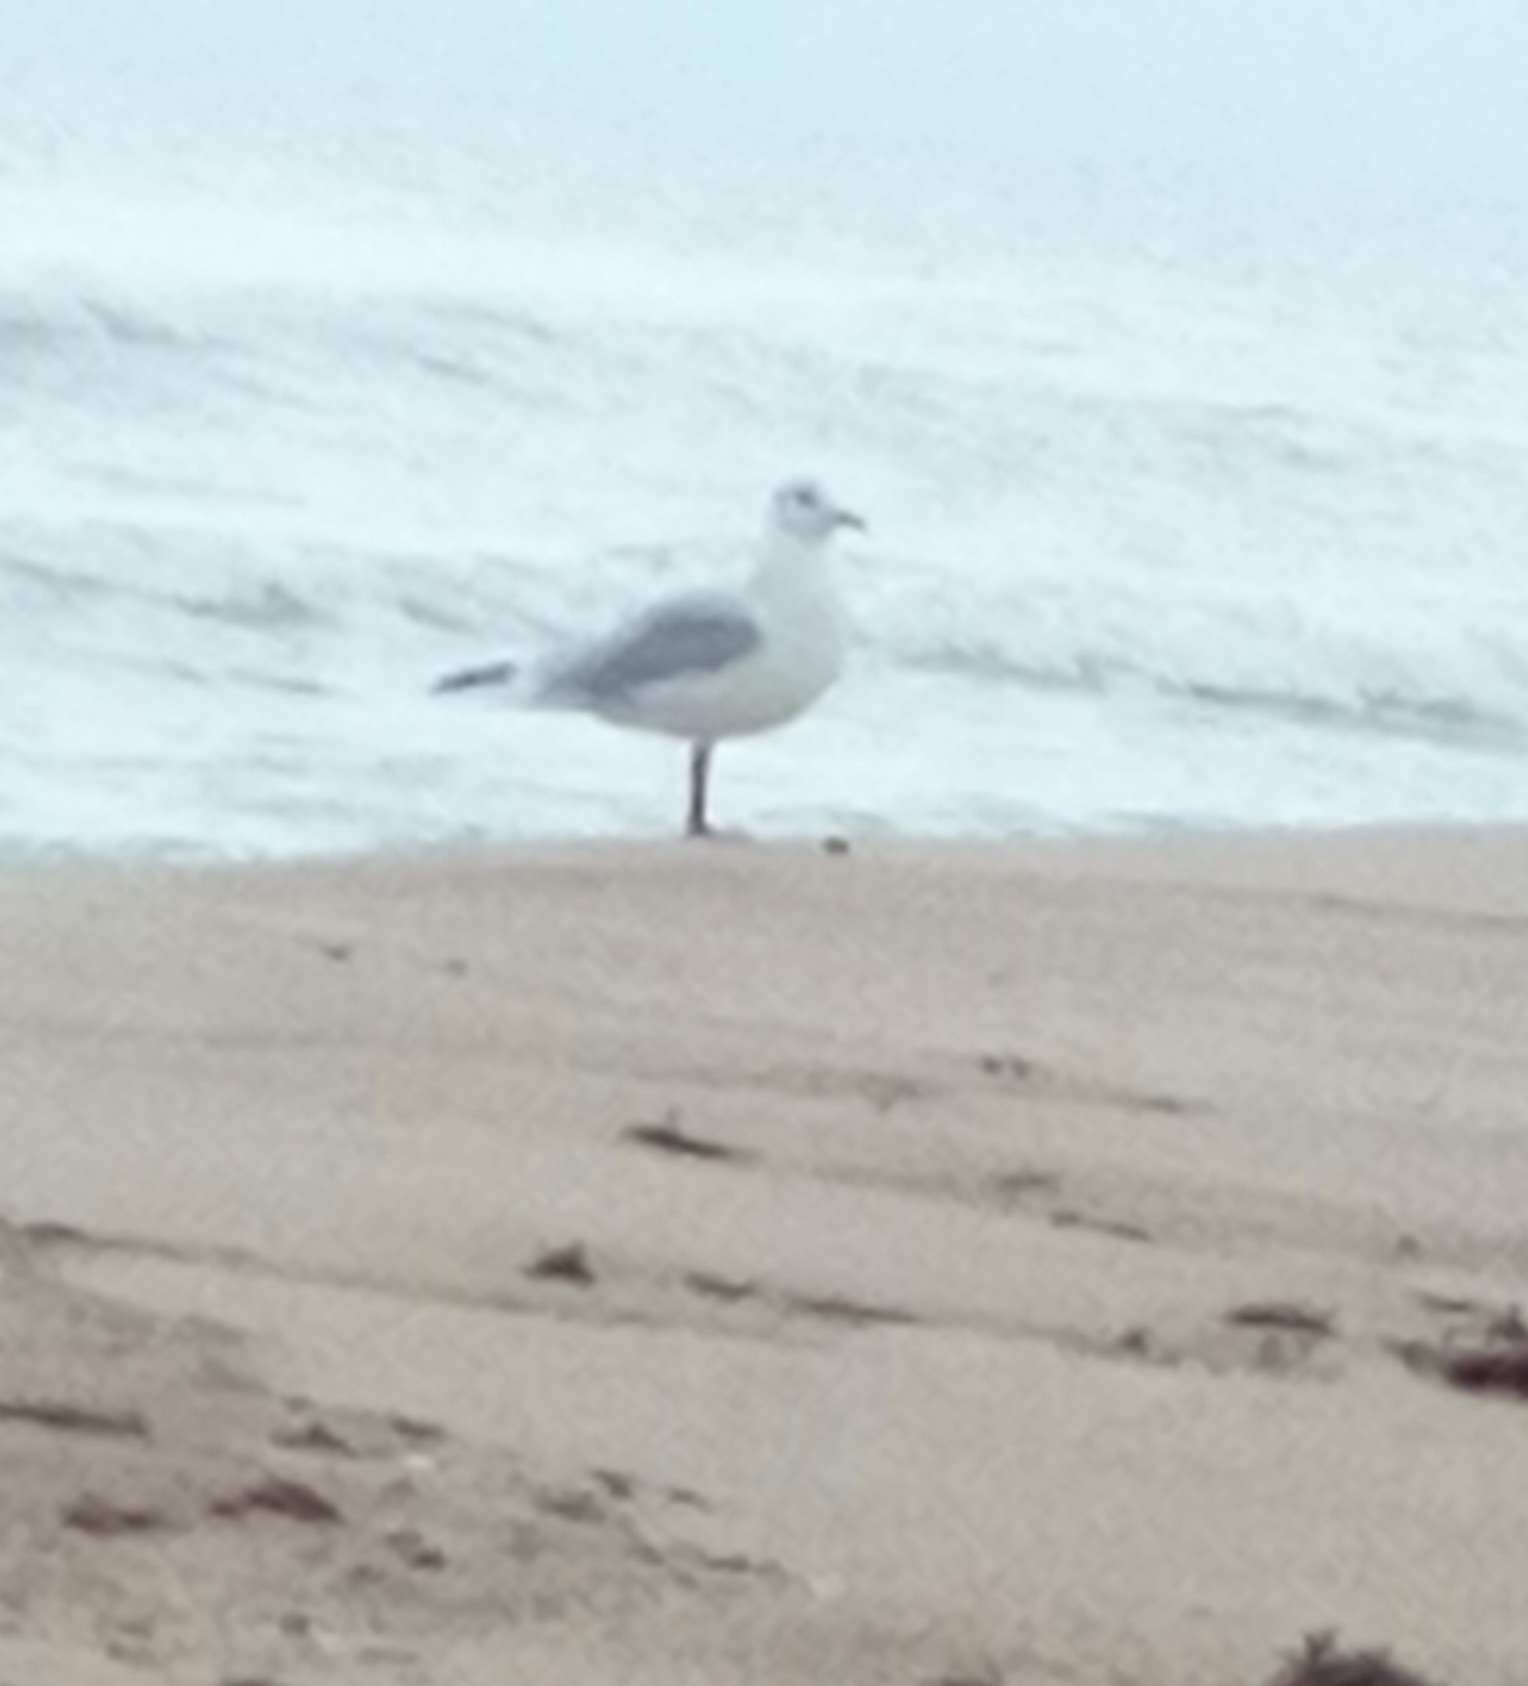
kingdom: Animalia
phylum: Chordata
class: Aves
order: Charadriiformes
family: Laridae
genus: Chroicocephalus
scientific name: Chroicocephalus ridibundus
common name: Black-headed gull
